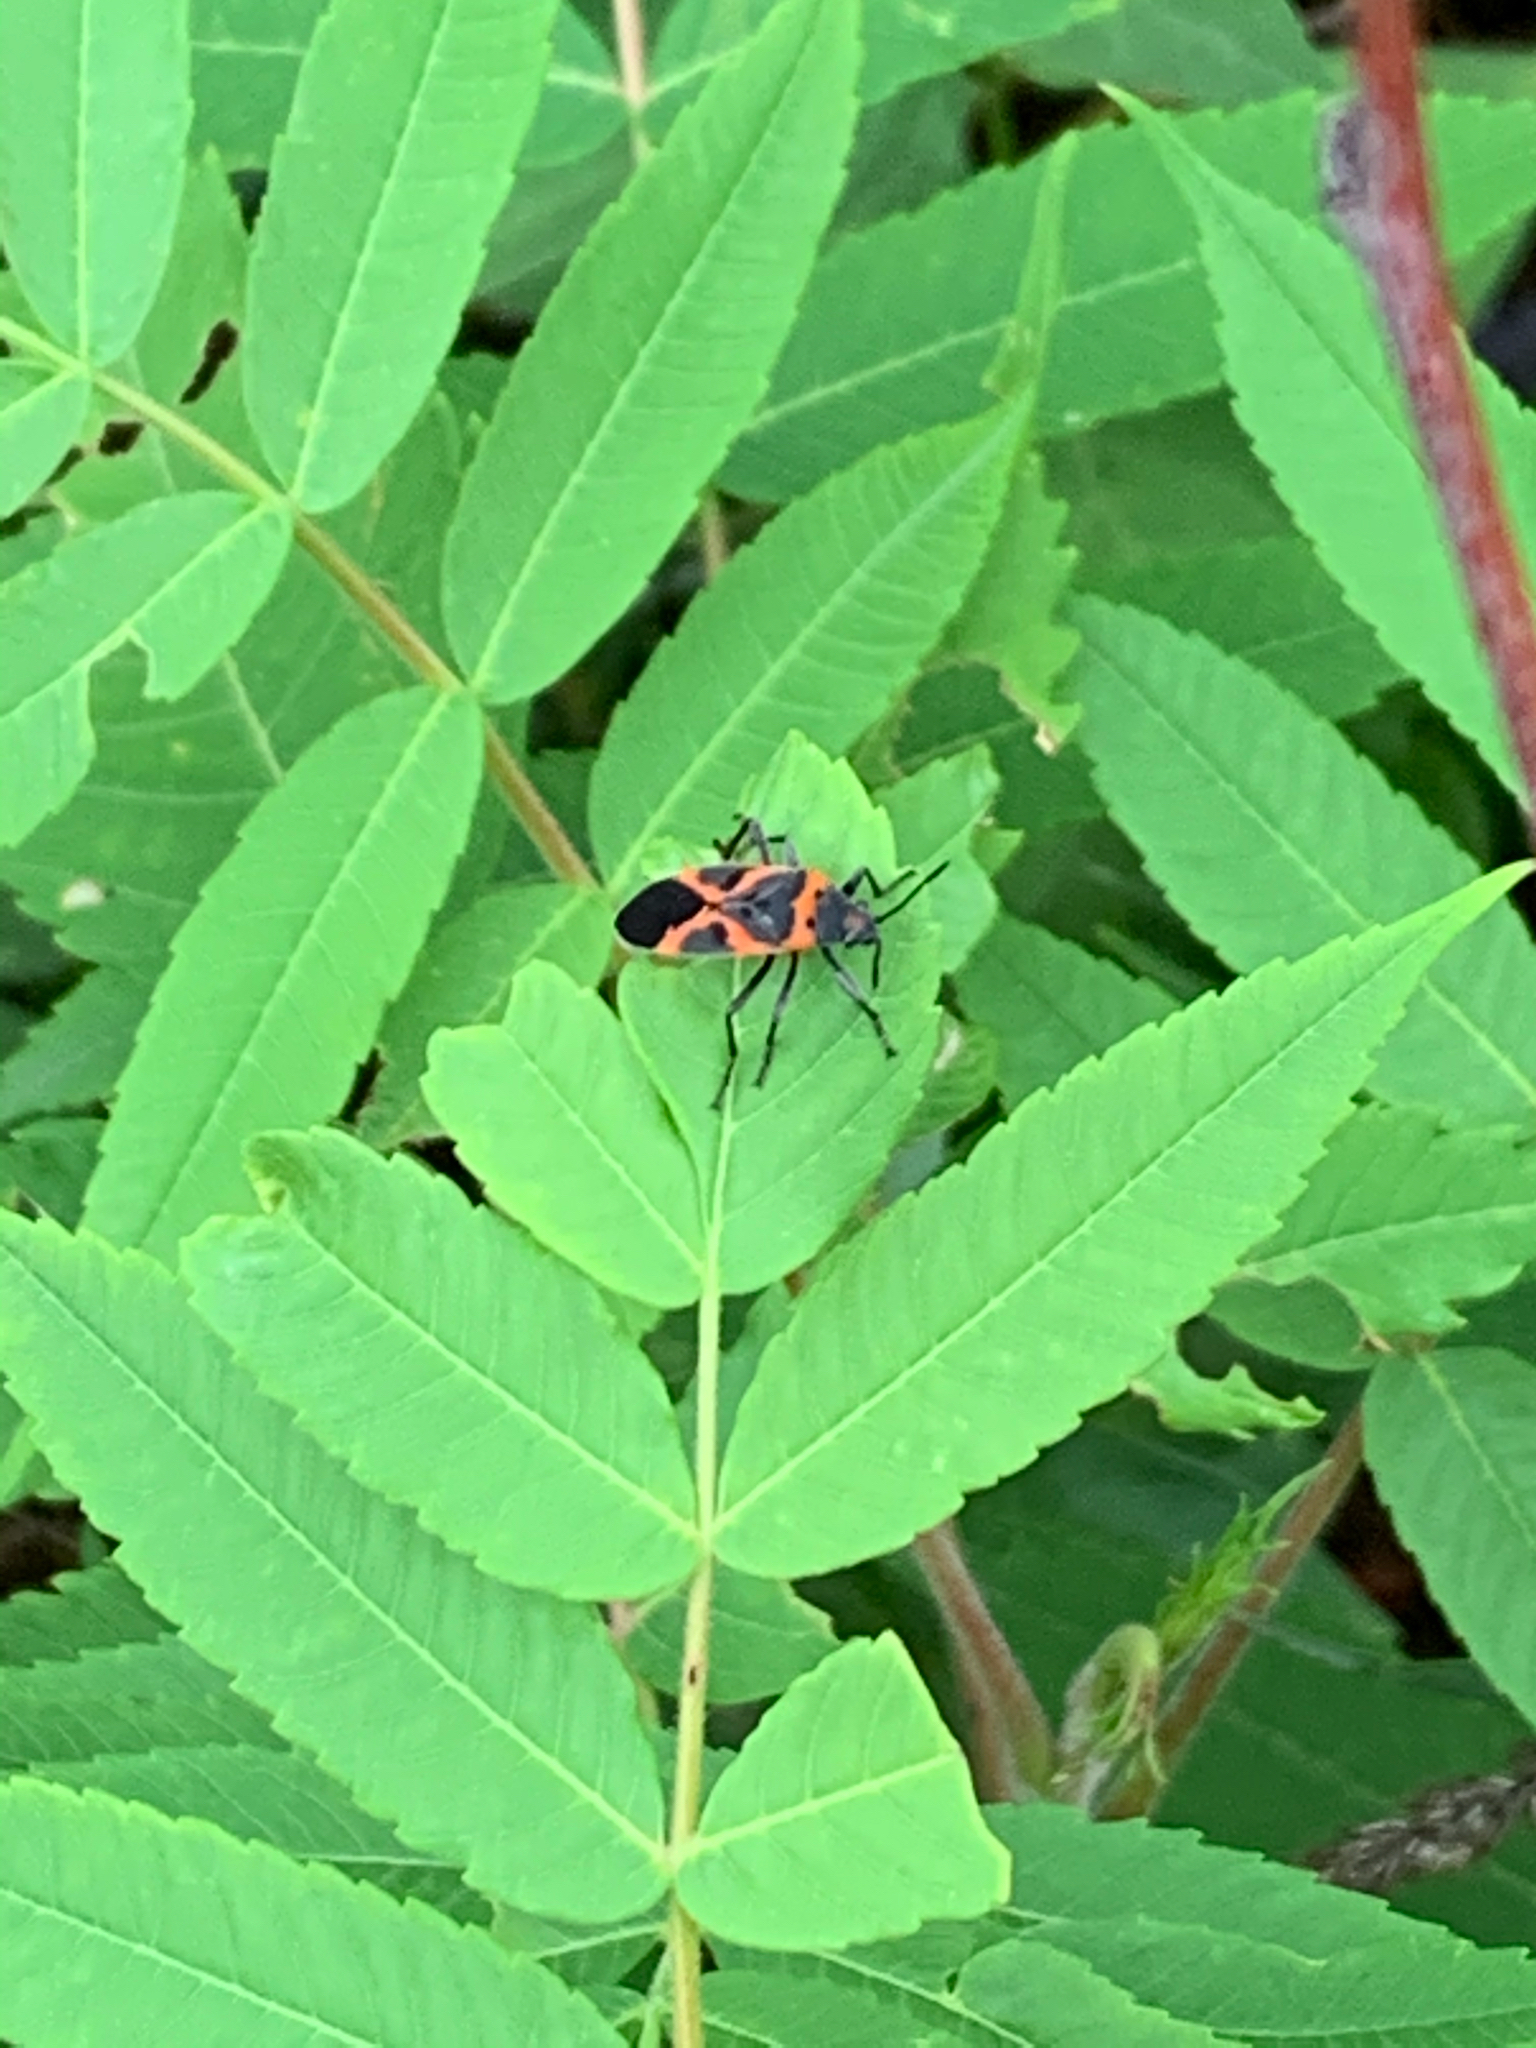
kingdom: Animalia
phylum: Arthropoda
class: Insecta
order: Hemiptera
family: Lygaeidae
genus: Lygaeus
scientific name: Lygaeus kalmii
